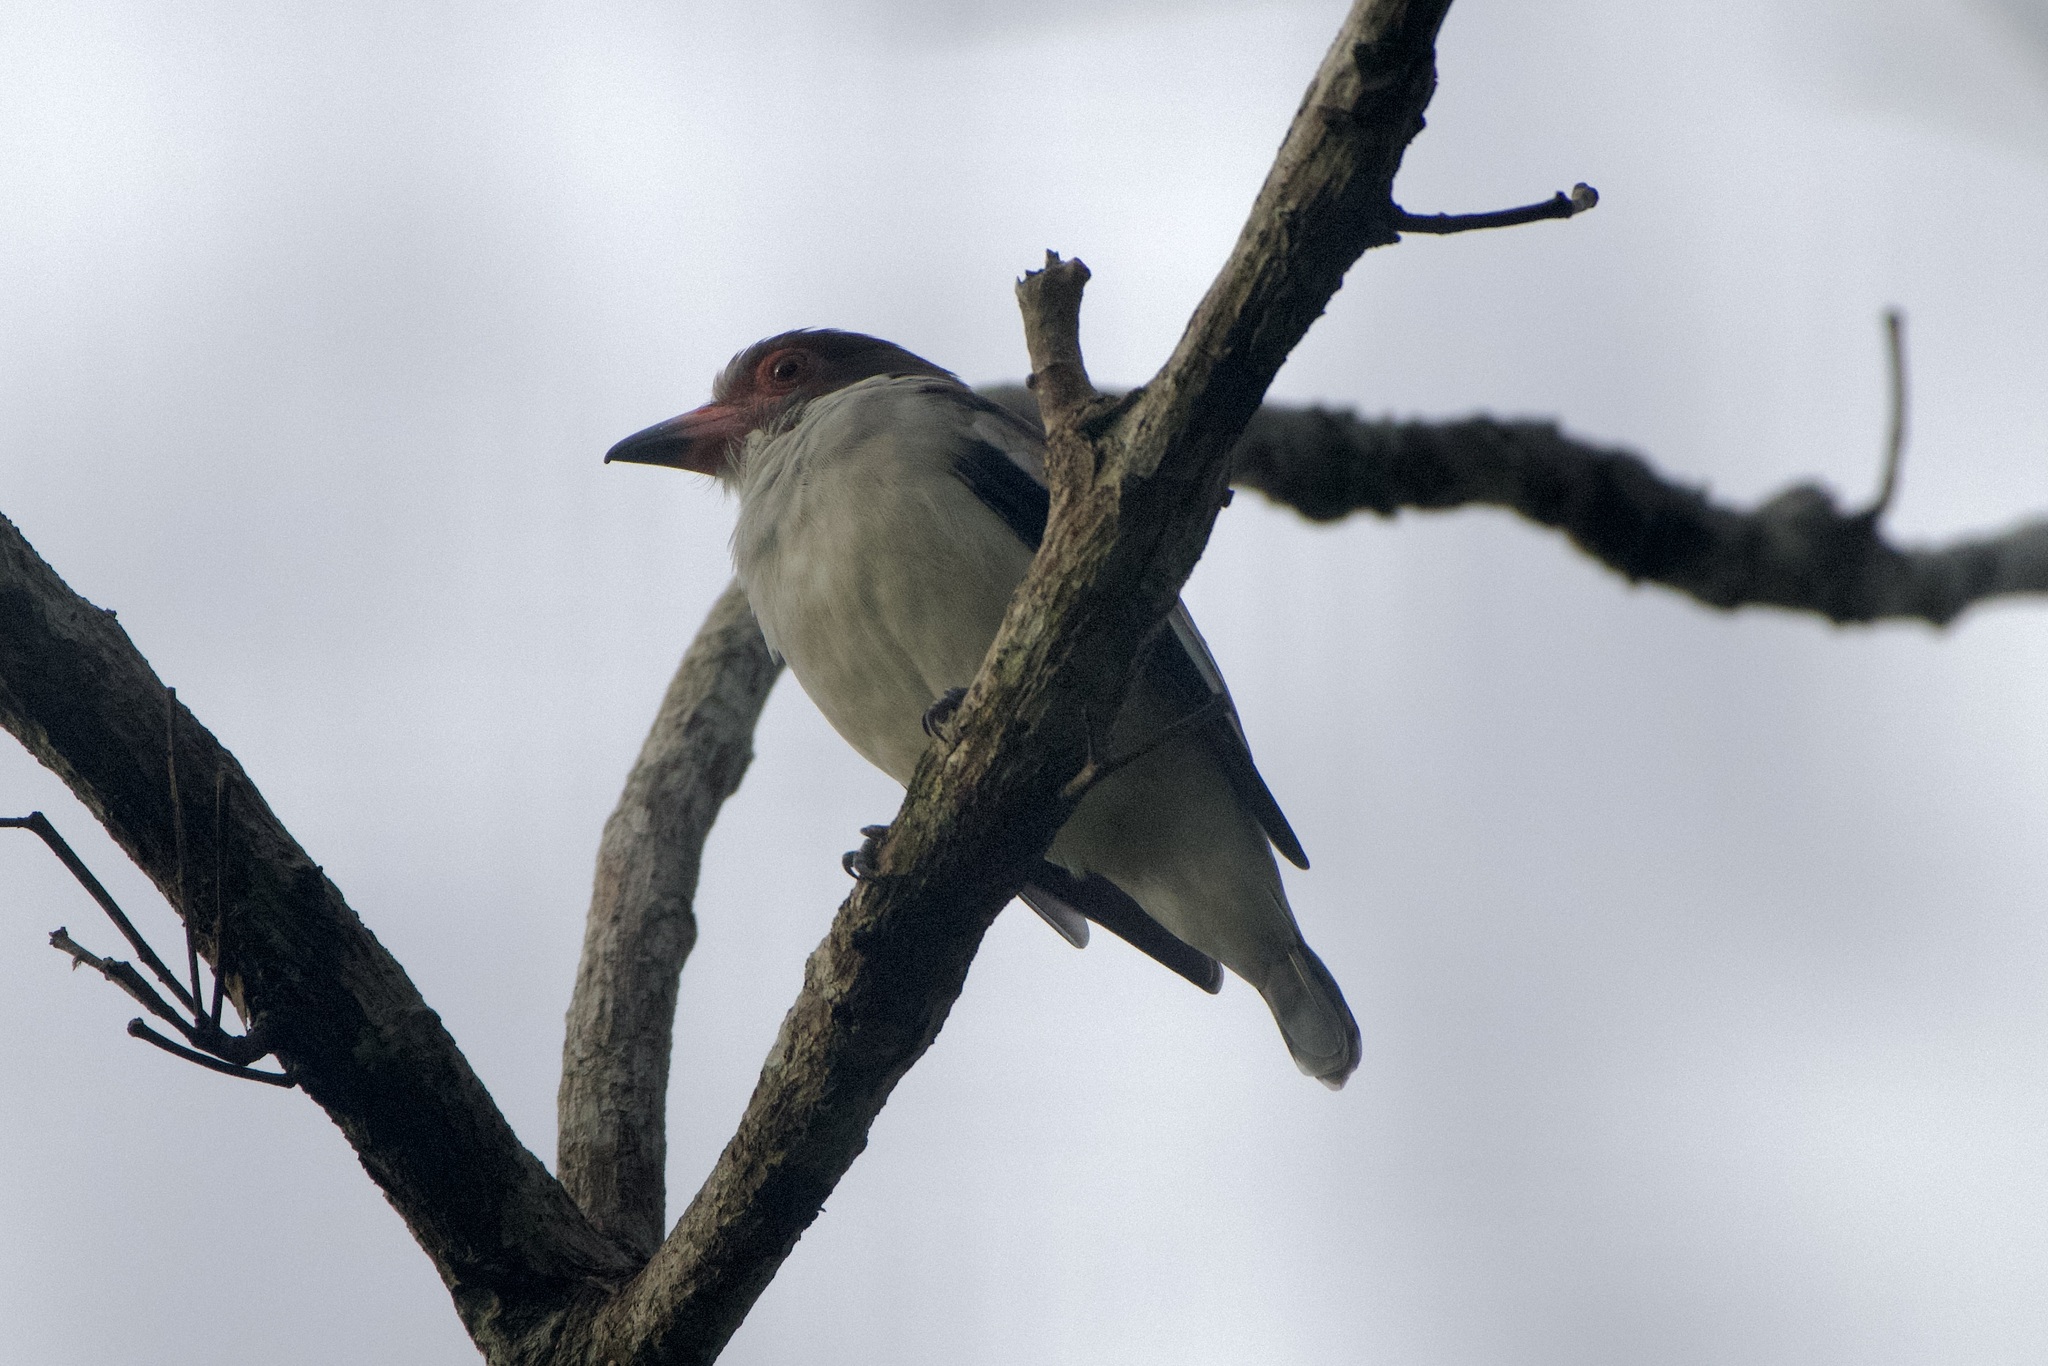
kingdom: Animalia
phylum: Chordata
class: Aves
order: Passeriformes
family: Cotingidae
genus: Tityra
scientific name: Tityra semifasciata
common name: Masked tityra
